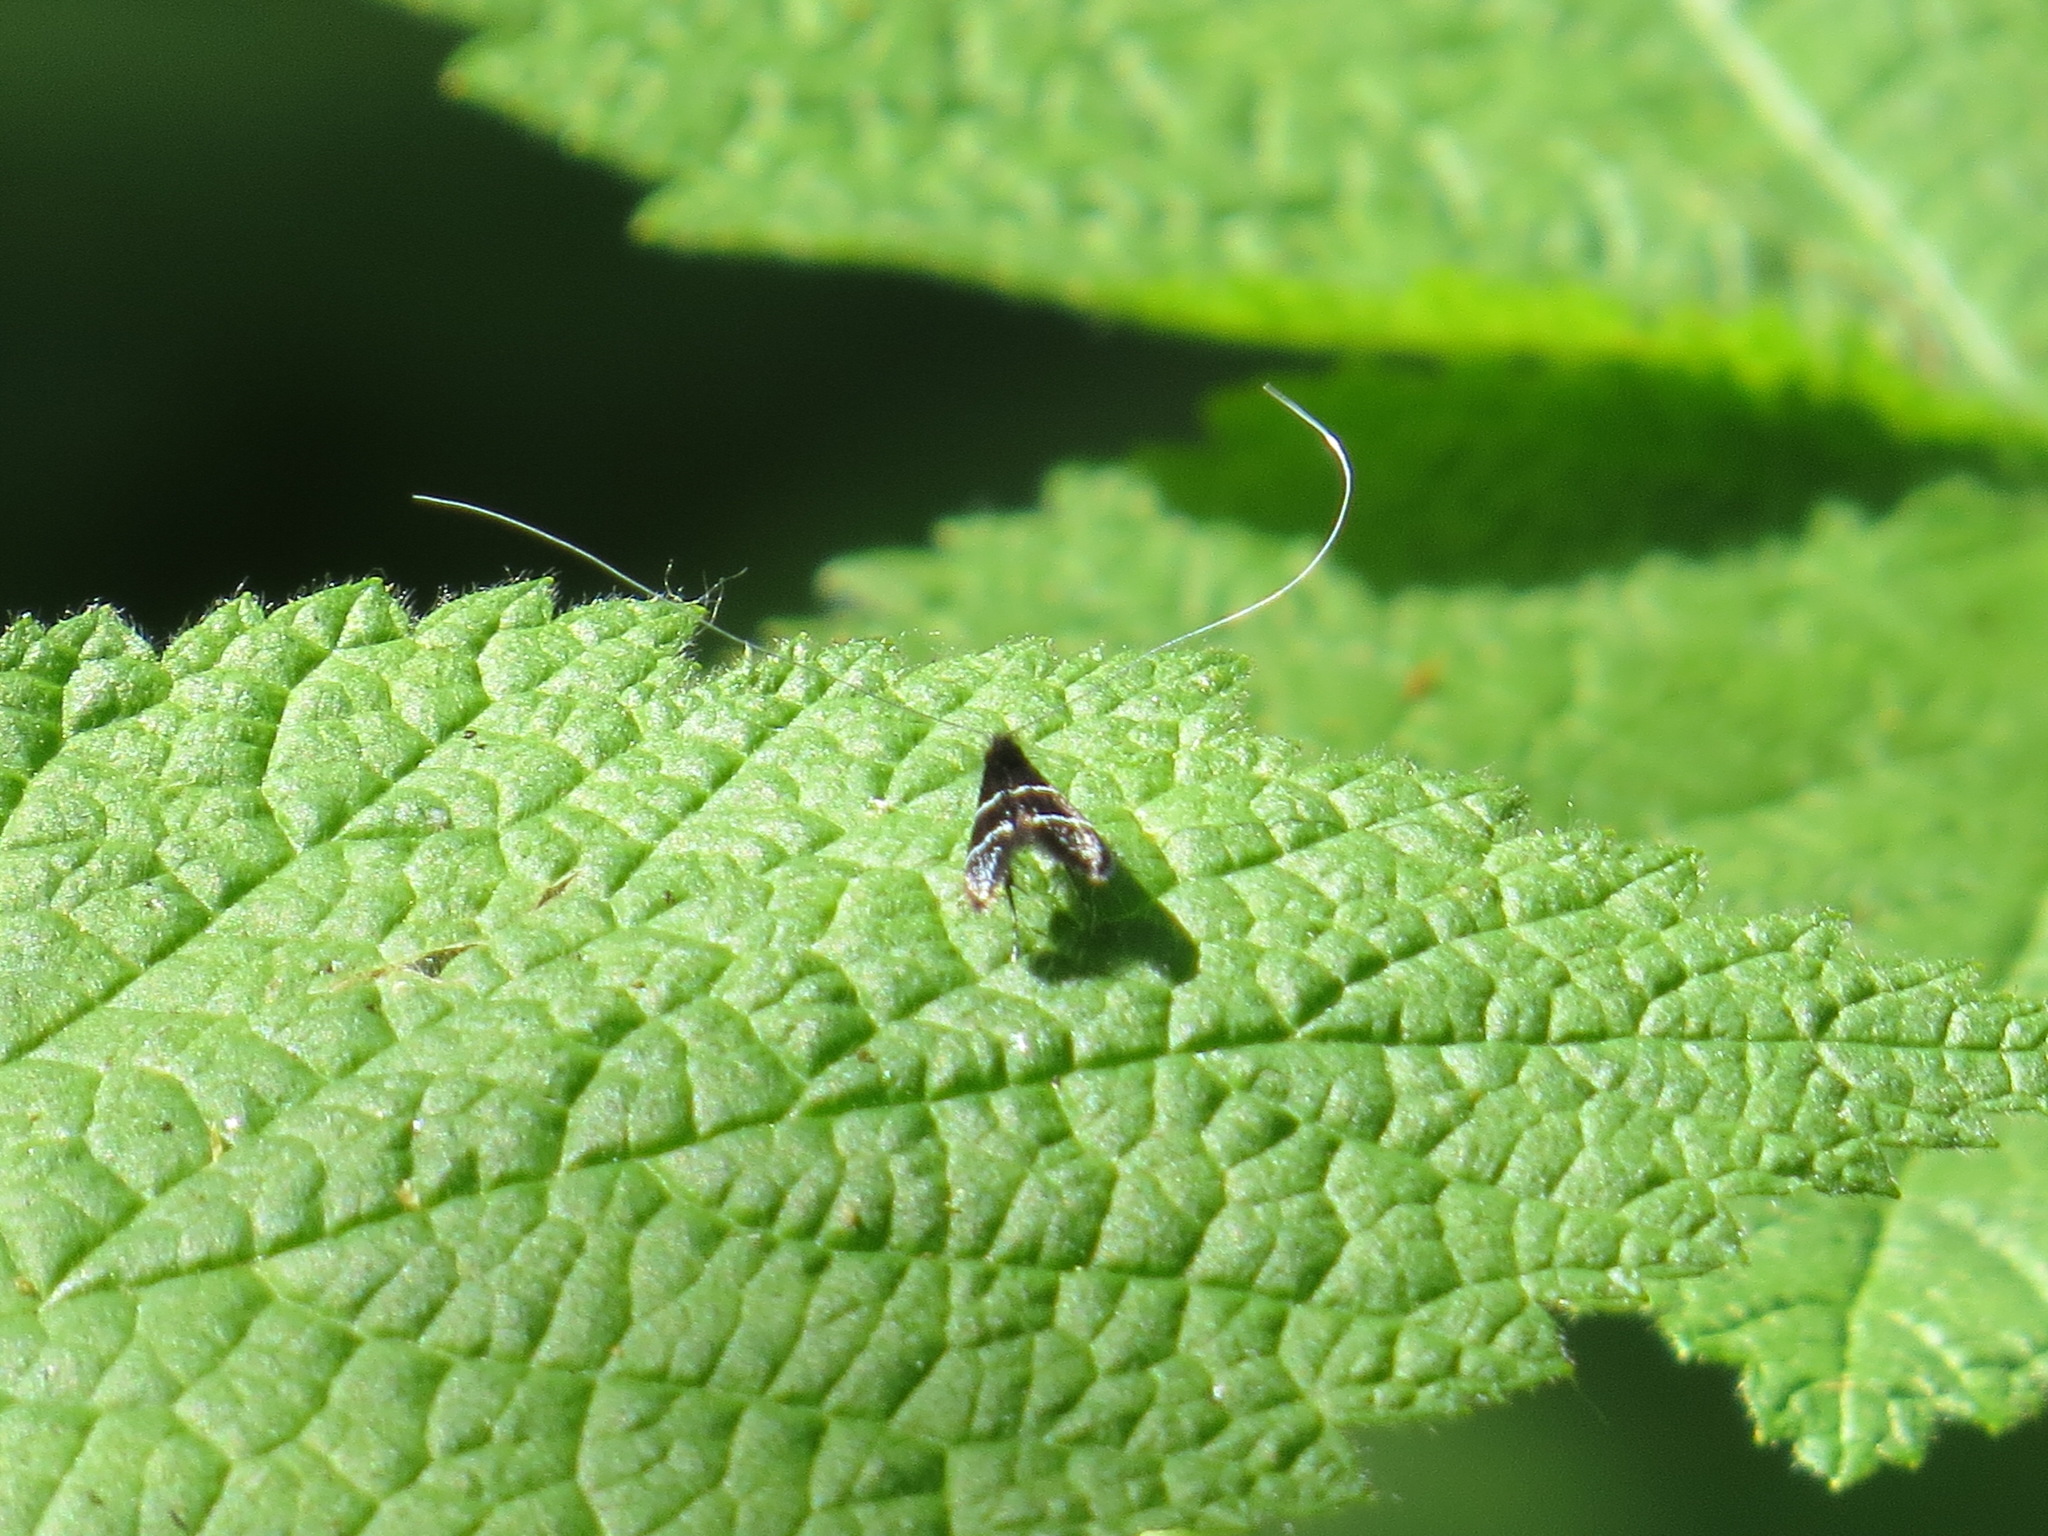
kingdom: Animalia
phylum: Arthropoda
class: Insecta
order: Lepidoptera
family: Adelidae
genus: Adela
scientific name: Adela septentrionella
